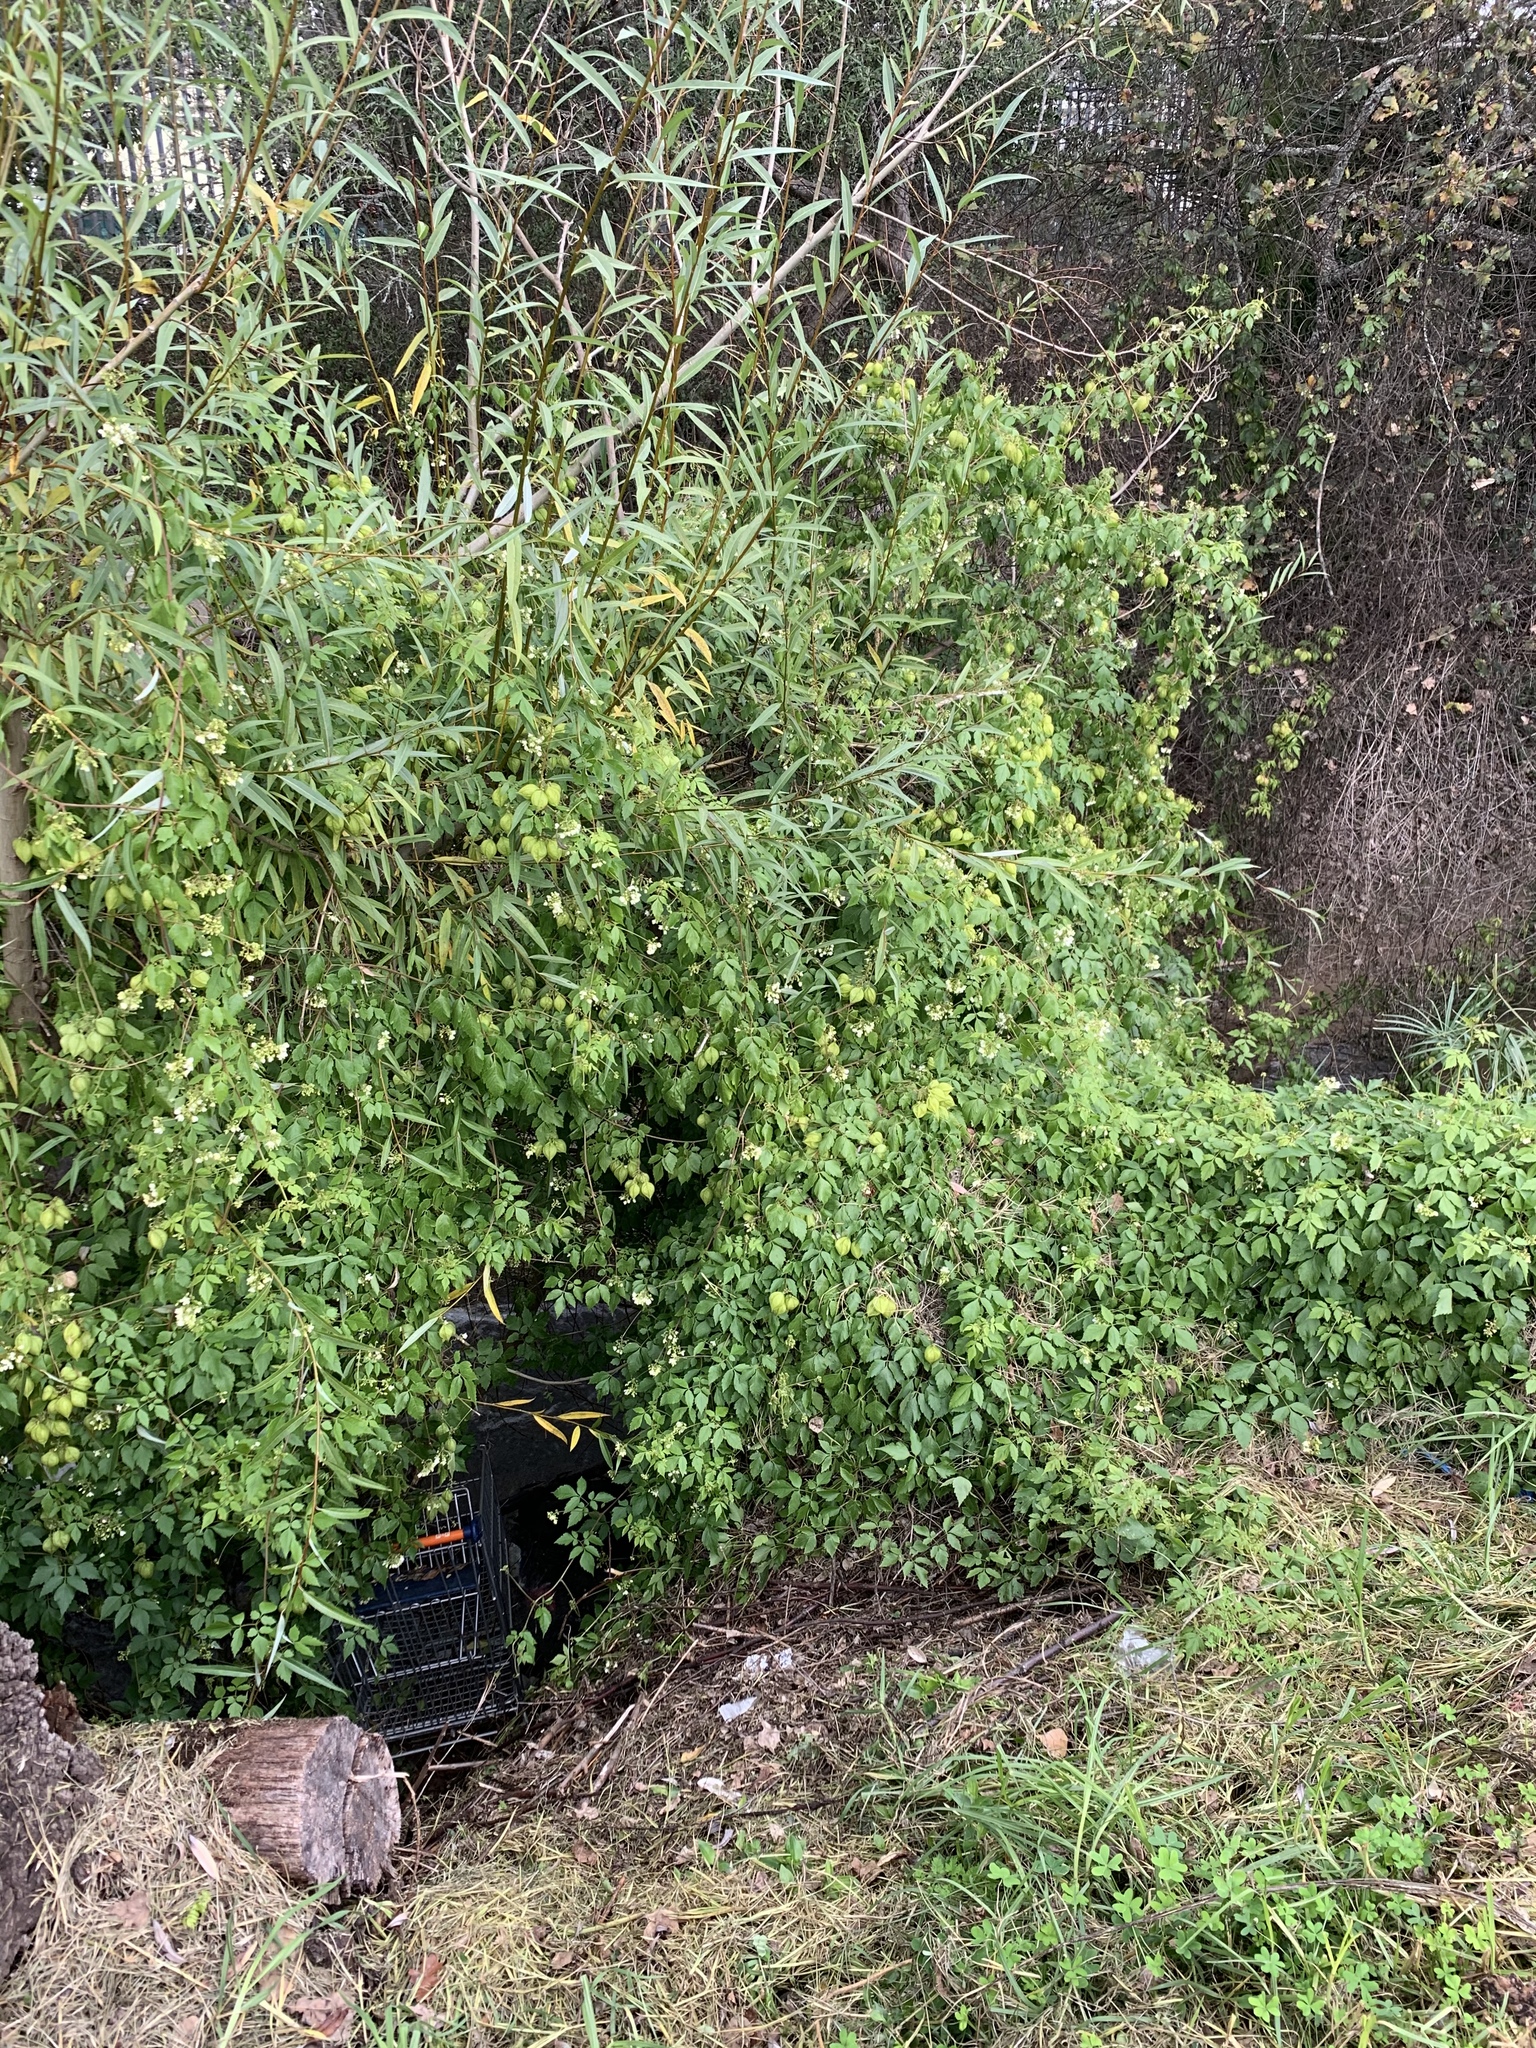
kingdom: Plantae
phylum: Tracheophyta
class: Magnoliopsida
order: Sapindales
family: Sapindaceae
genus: Cardiospermum
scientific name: Cardiospermum grandiflorum
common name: Balloon vine
